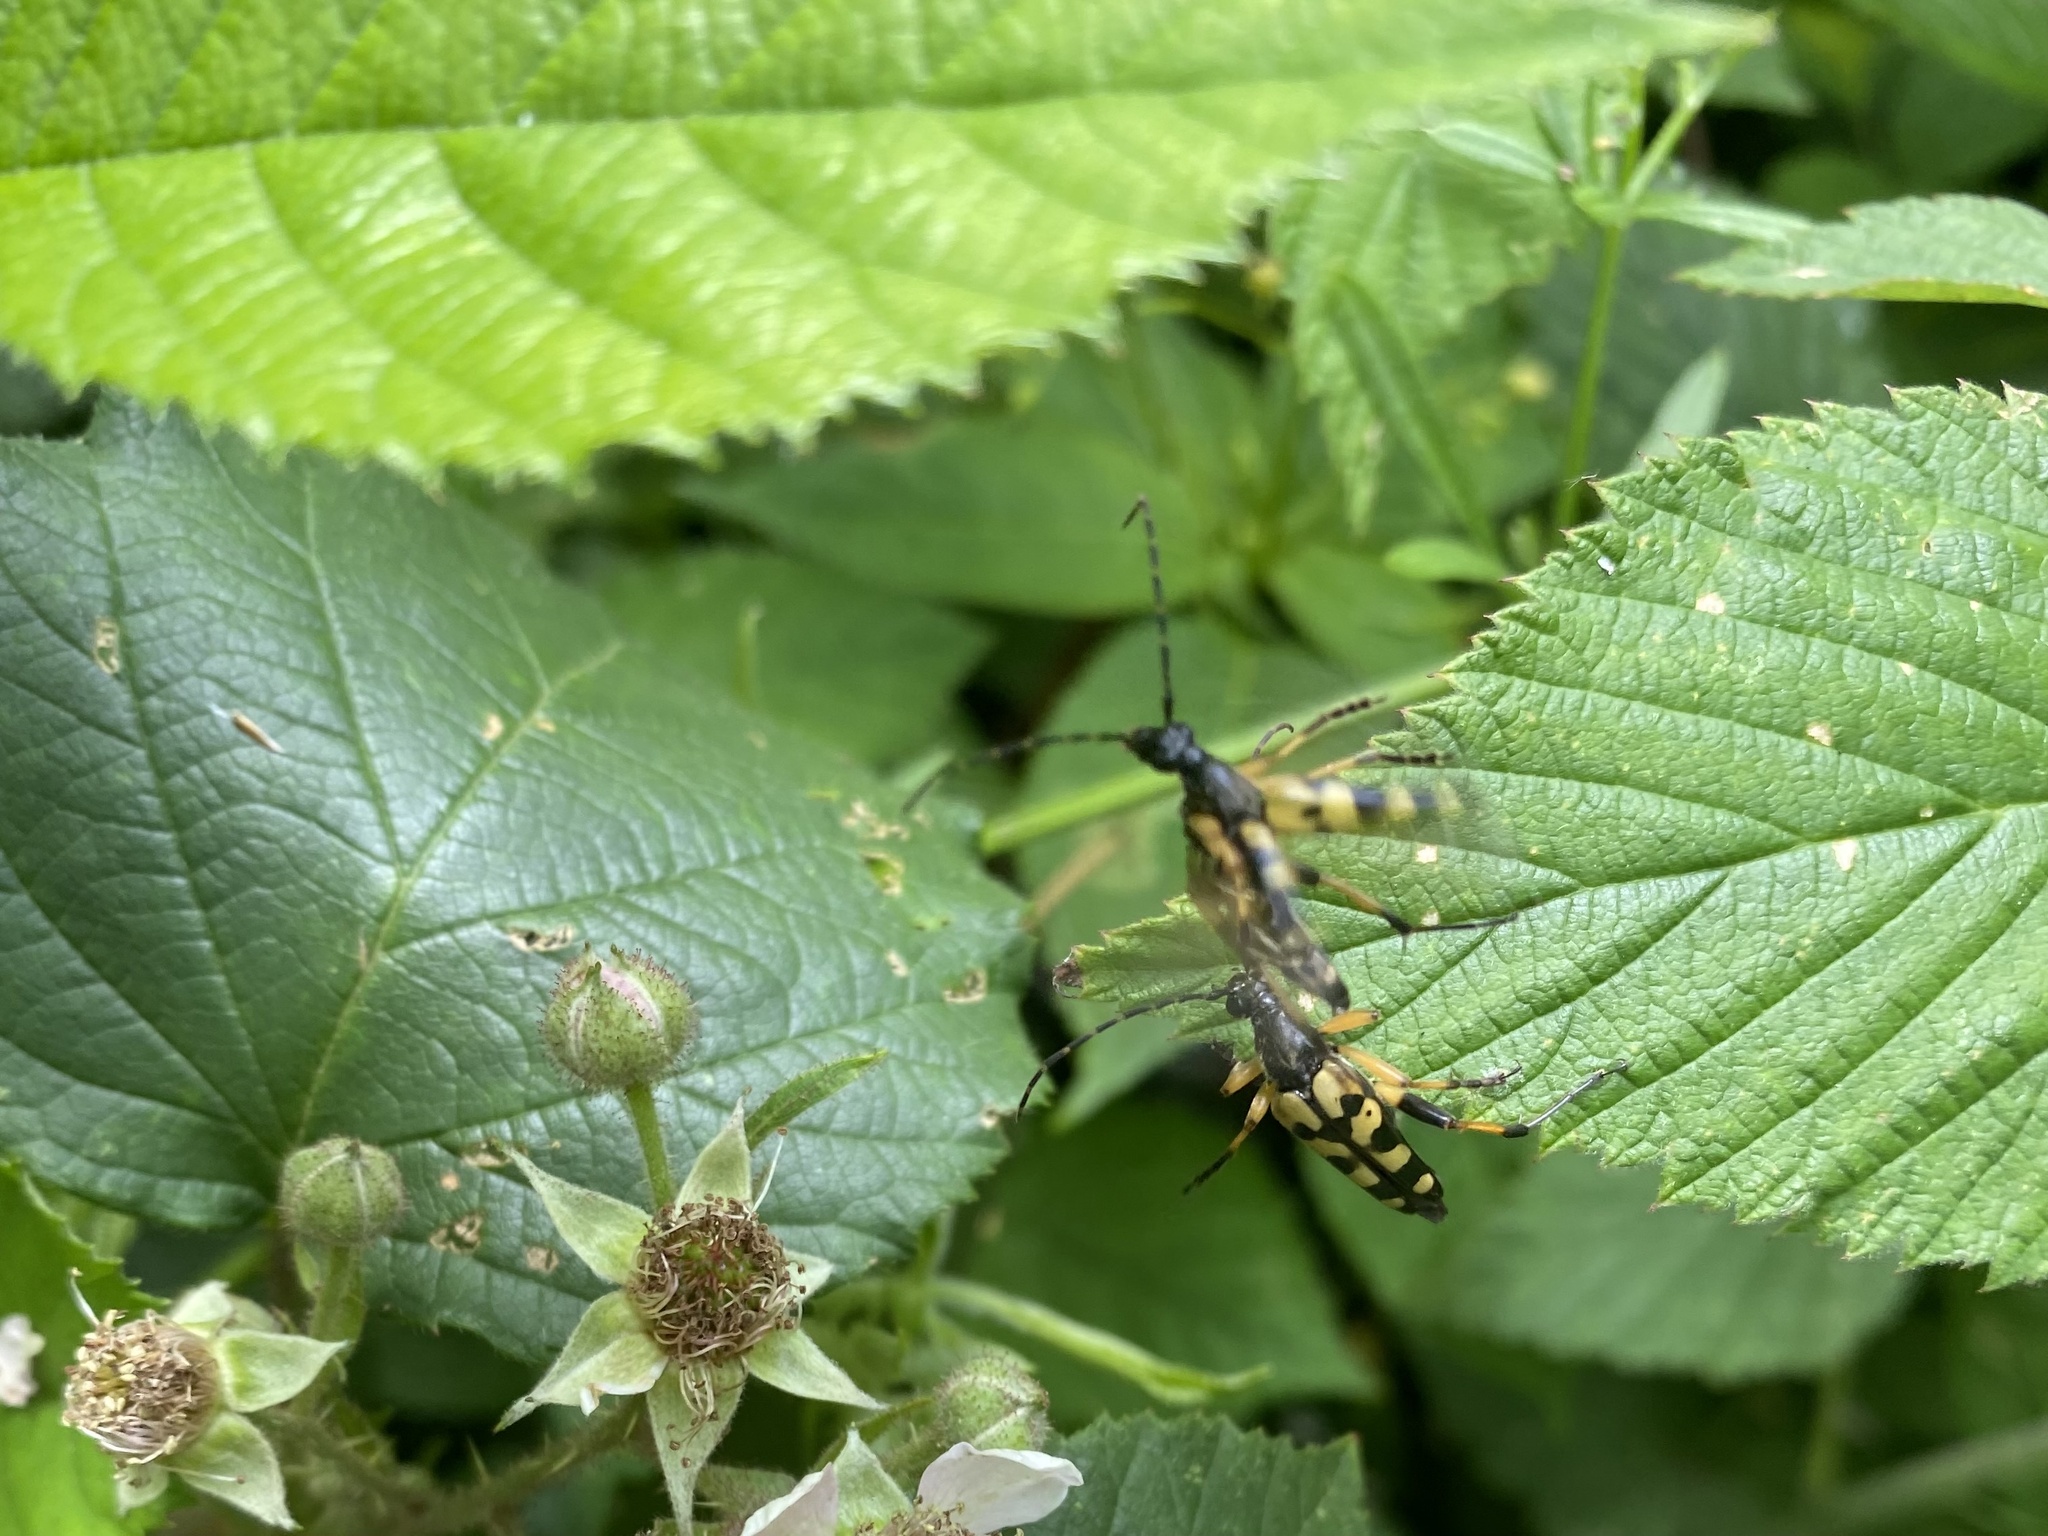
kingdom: Animalia
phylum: Arthropoda
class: Insecta
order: Coleoptera
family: Cerambycidae
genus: Rutpela
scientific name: Rutpela maculata
